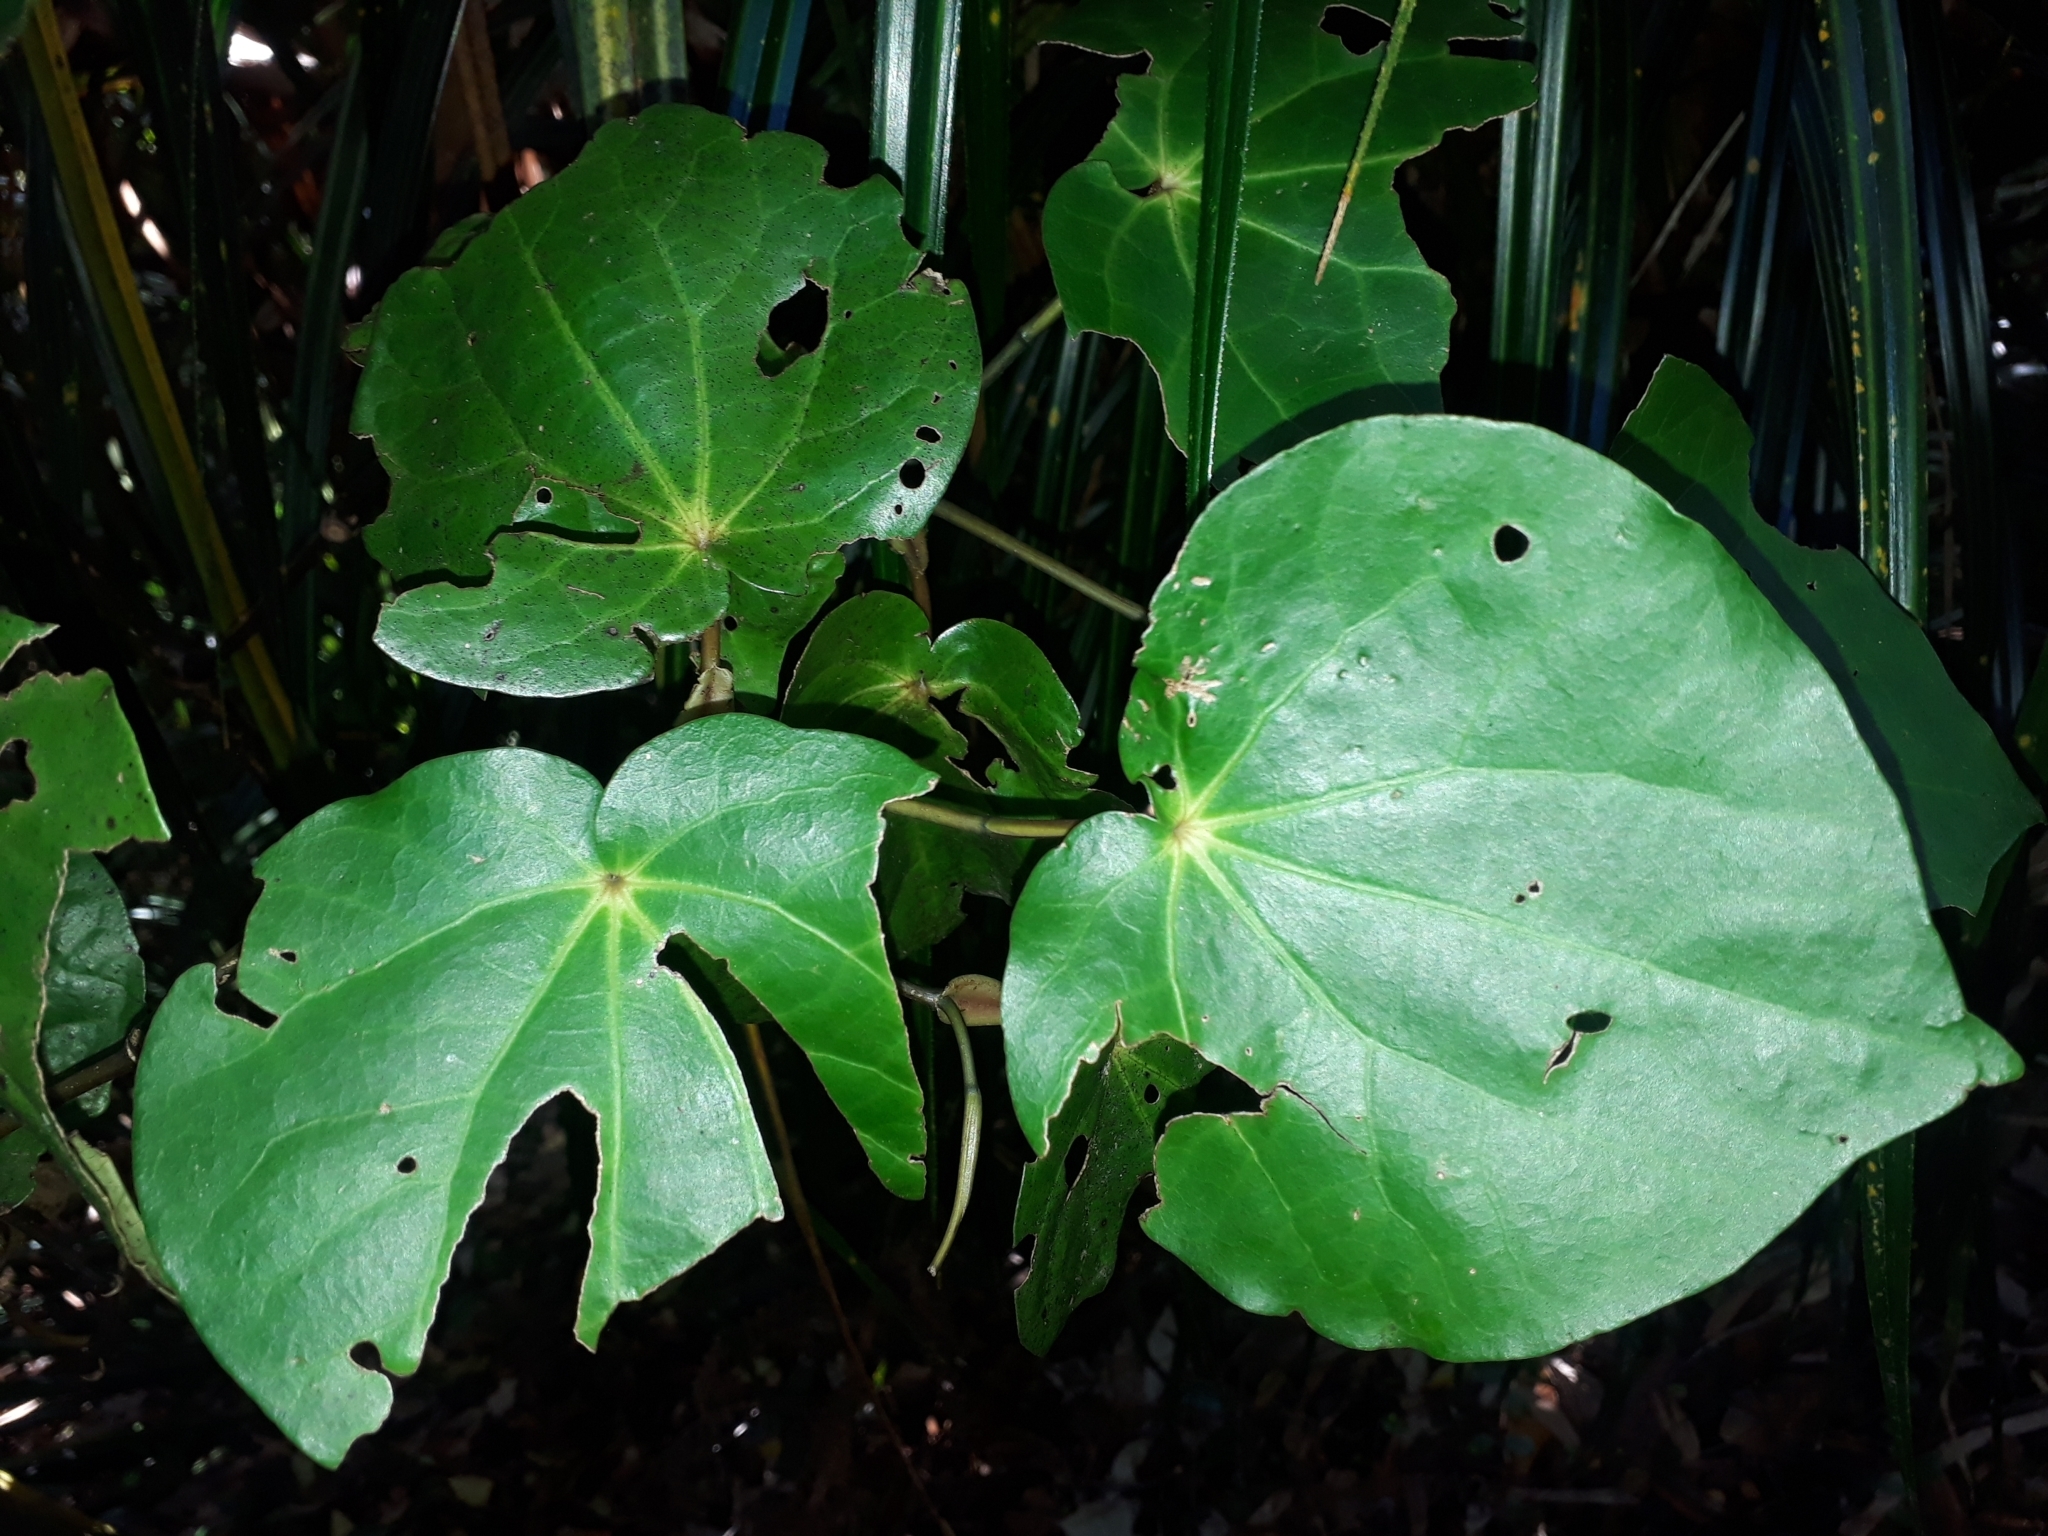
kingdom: Plantae
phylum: Tracheophyta
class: Magnoliopsida
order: Piperales
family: Piperaceae
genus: Macropiper
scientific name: Macropiper excelsum
